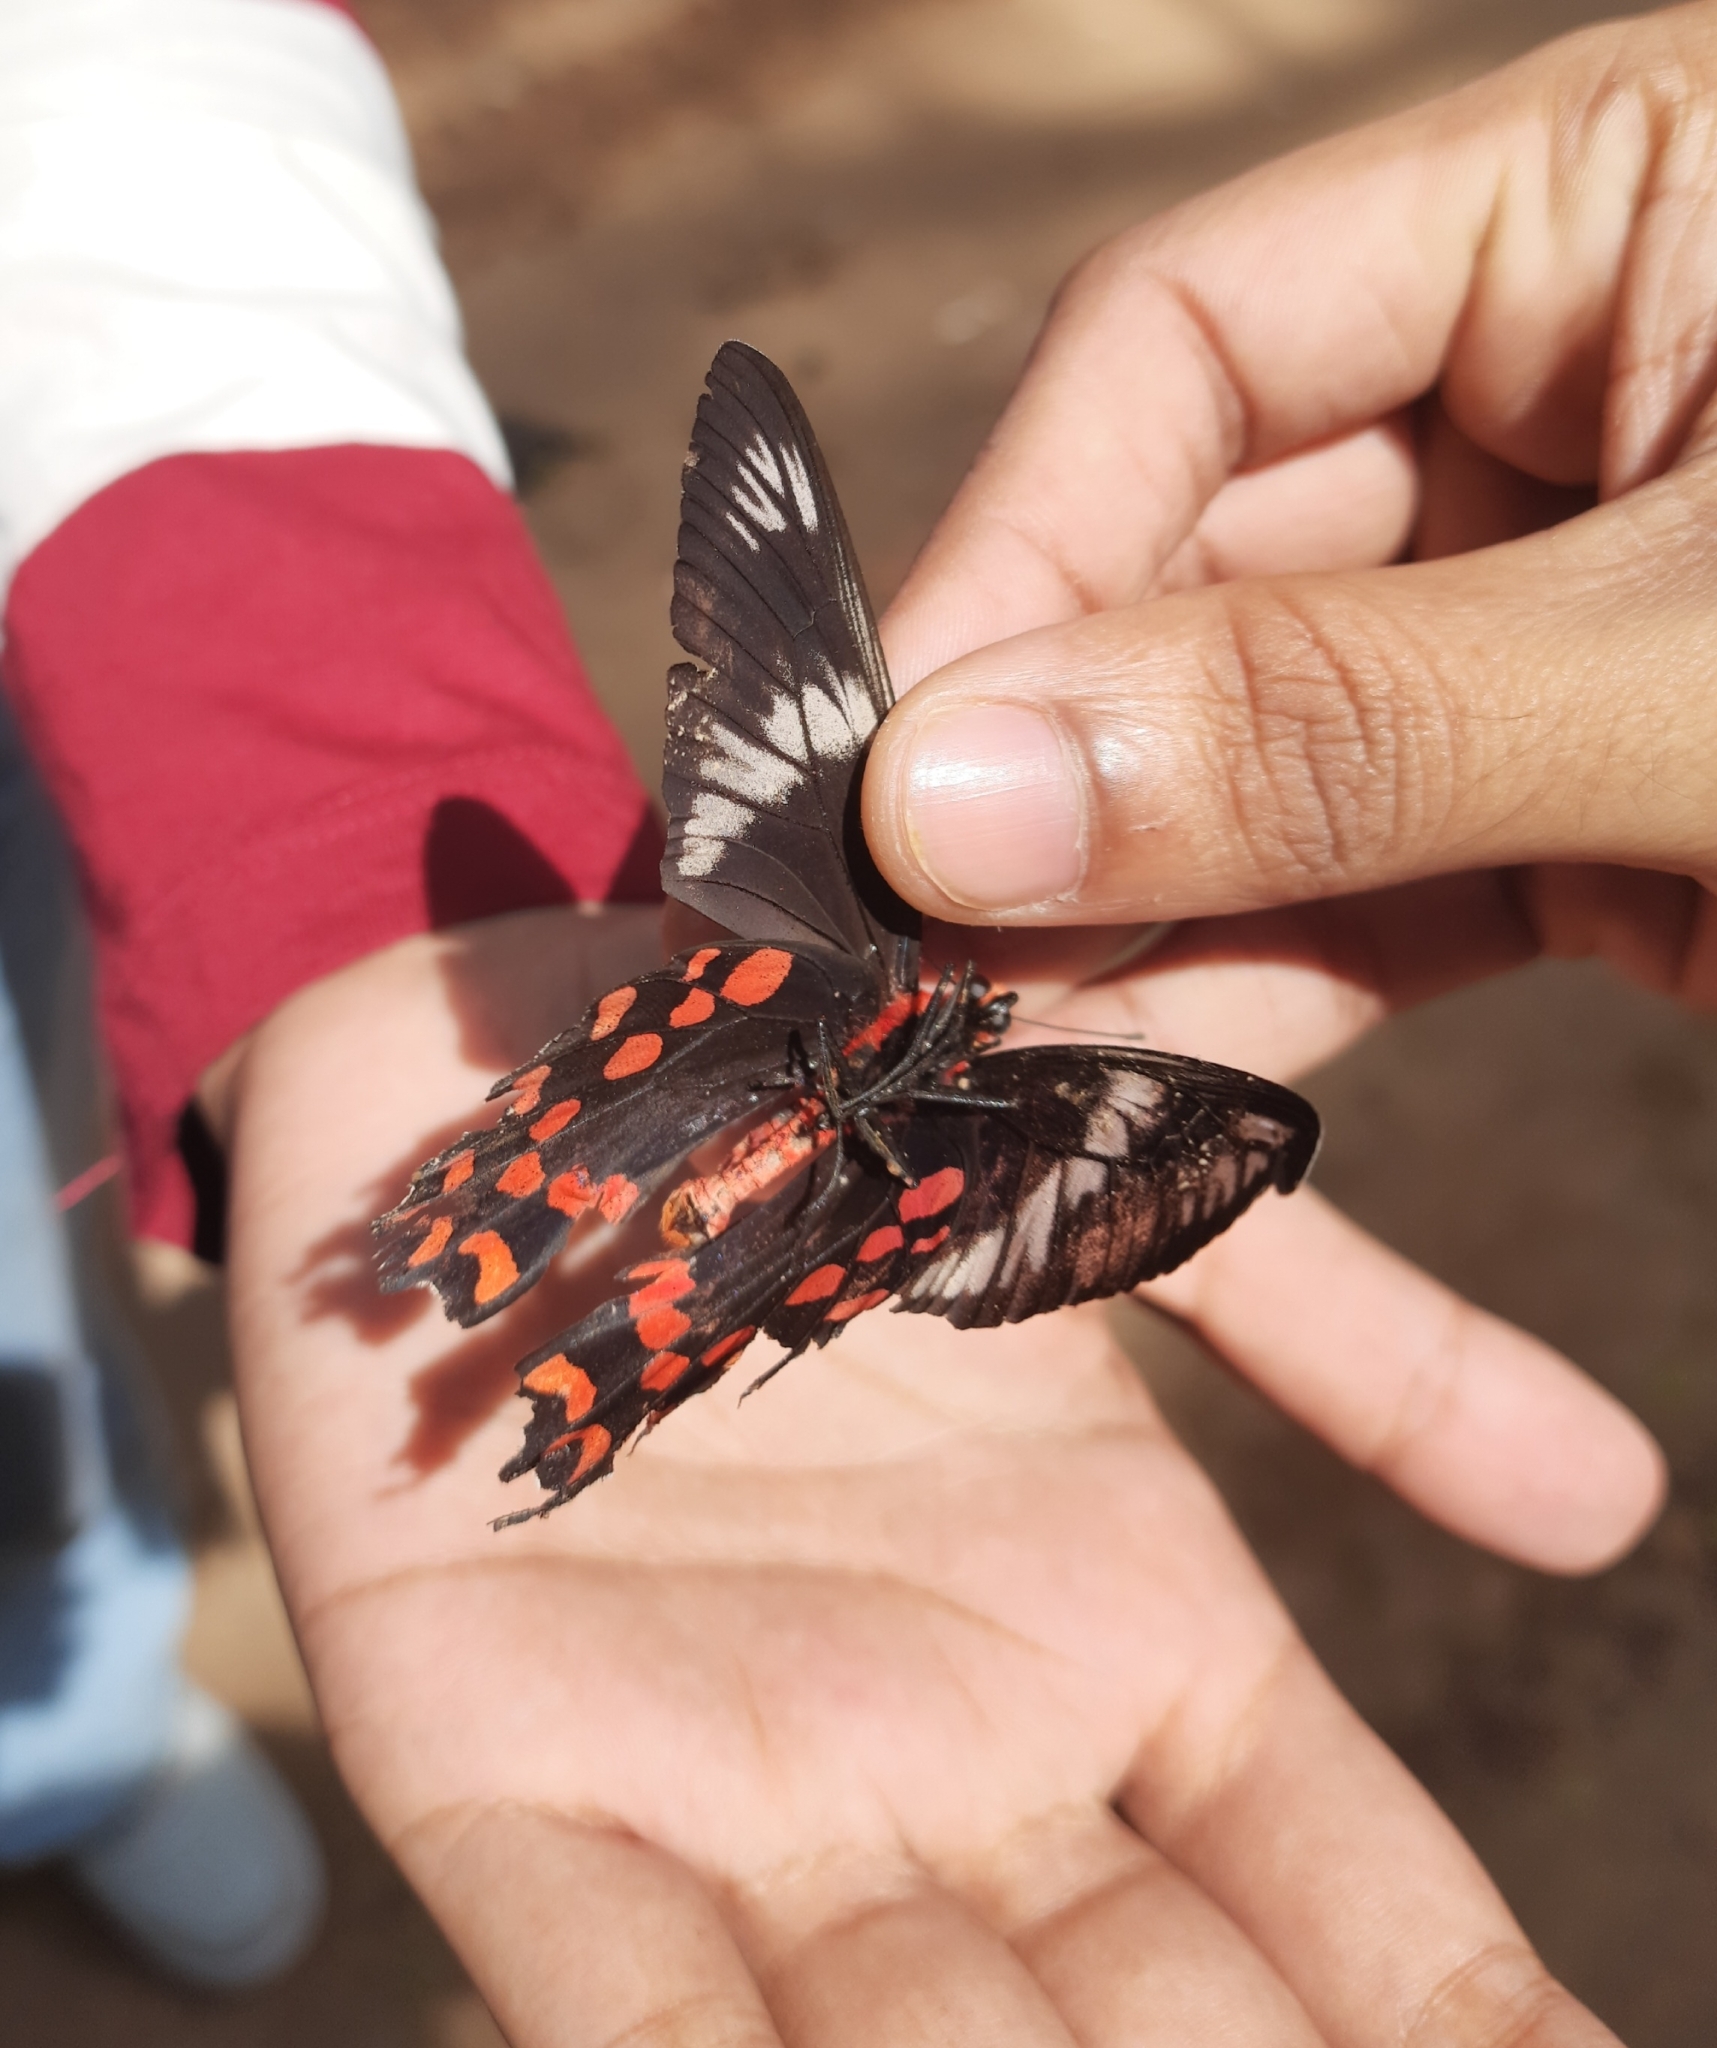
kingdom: Animalia
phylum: Arthropoda
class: Insecta
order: Lepidoptera
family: Papilionidae
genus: Pachliopta
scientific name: Pachliopta hector
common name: Crimson rose
